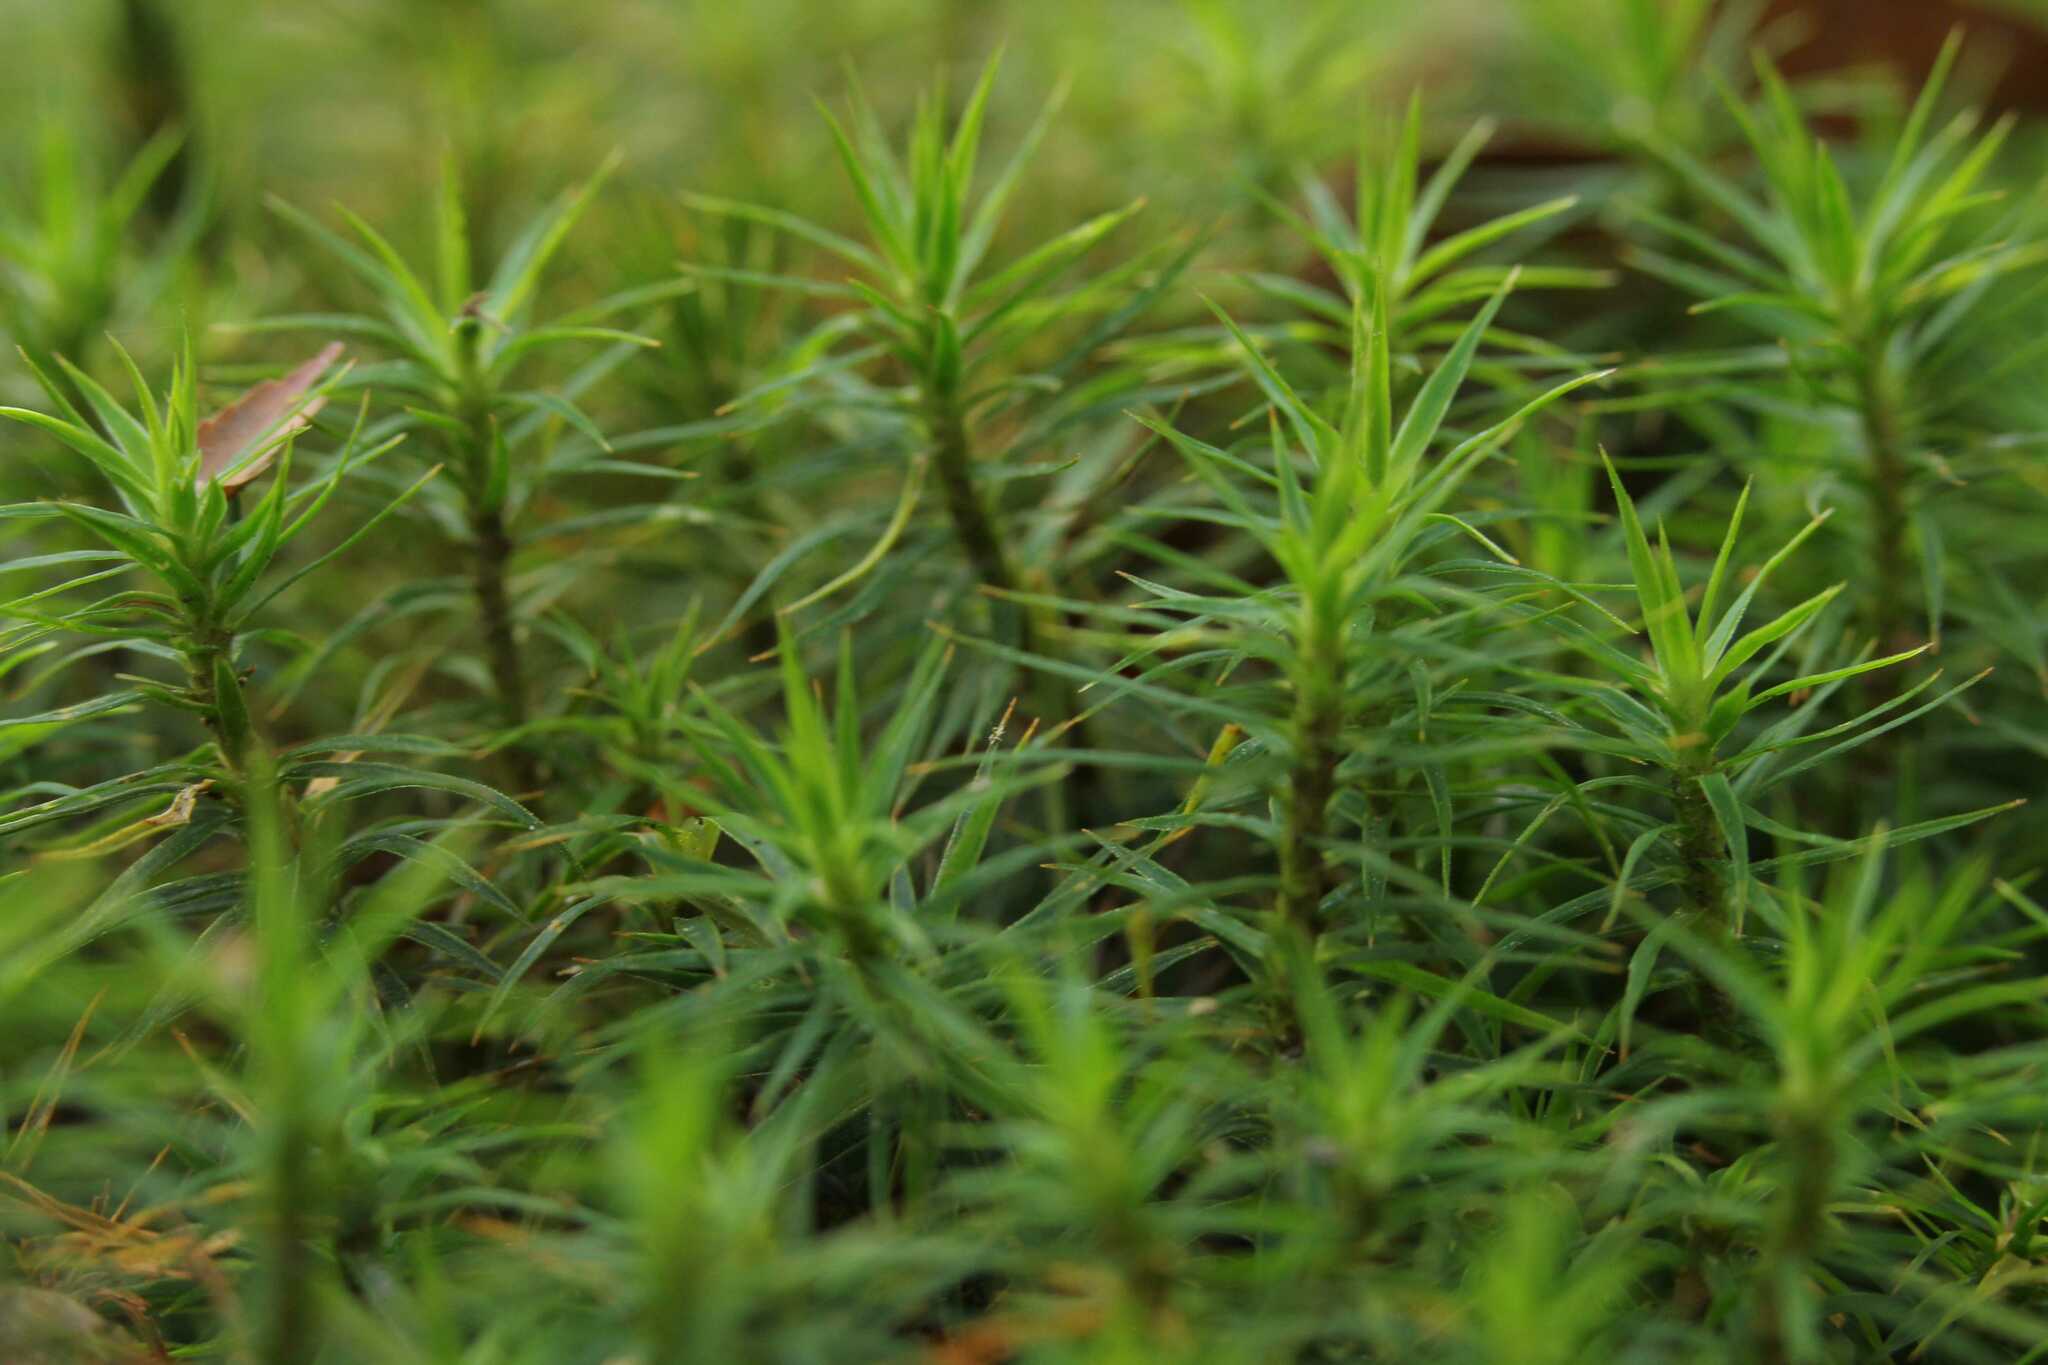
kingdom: Plantae
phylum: Bryophyta
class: Polytrichopsida
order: Polytrichales
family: Polytrichaceae
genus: Polytrichum
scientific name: Polytrichum formosum
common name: Bank haircap moss
